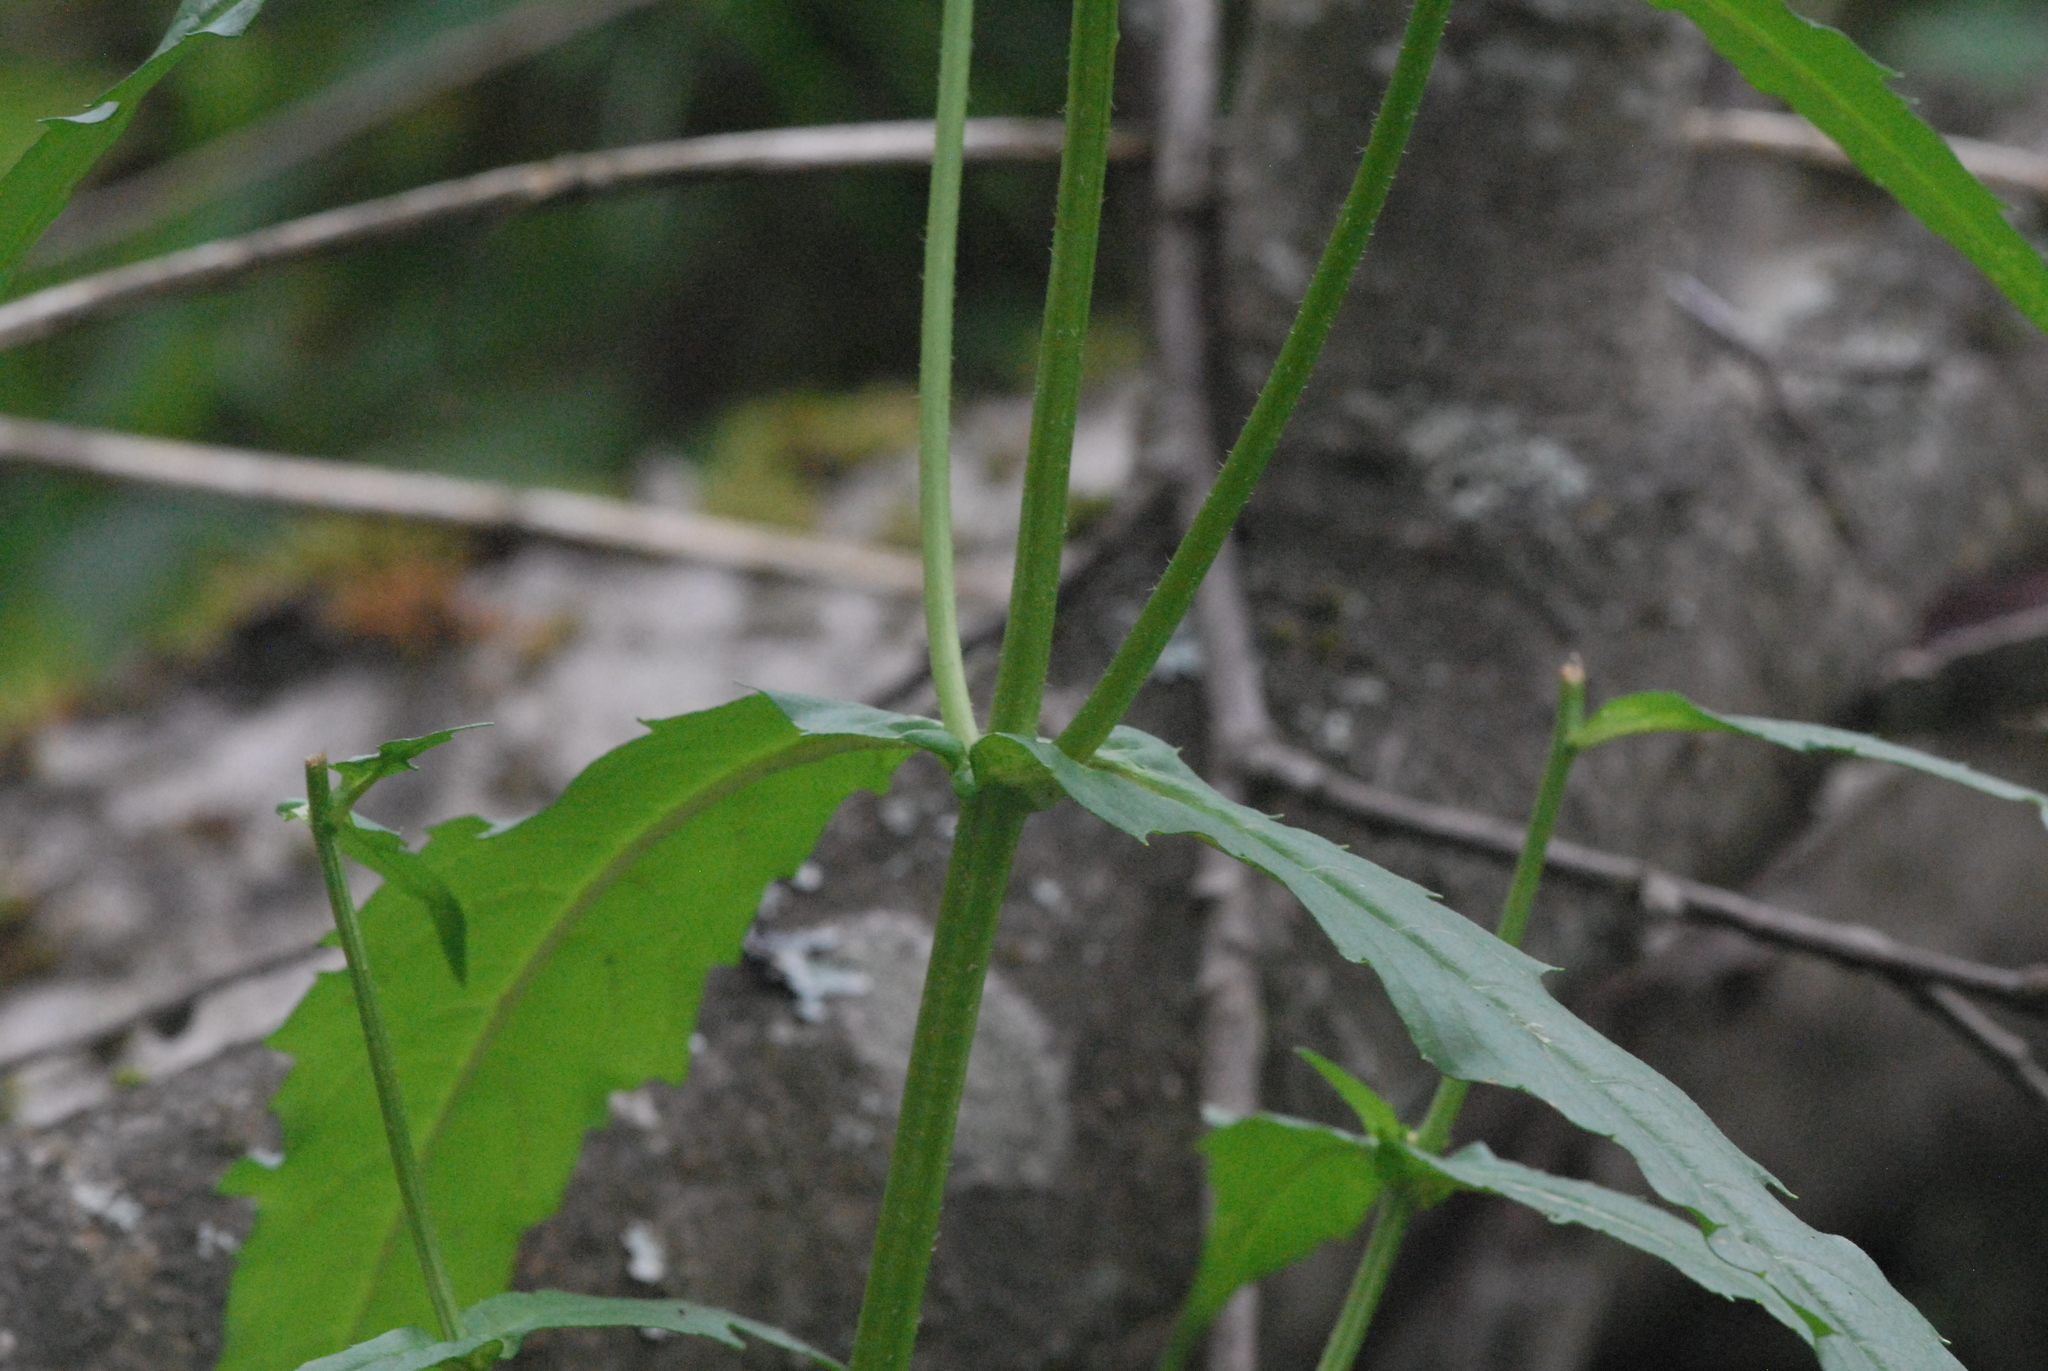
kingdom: Plantae
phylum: Tracheophyta
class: Magnoliopsida
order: Asterales
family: Asteraceae
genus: Bidens
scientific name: Bidens cernua
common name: Nodding bur-marigold
